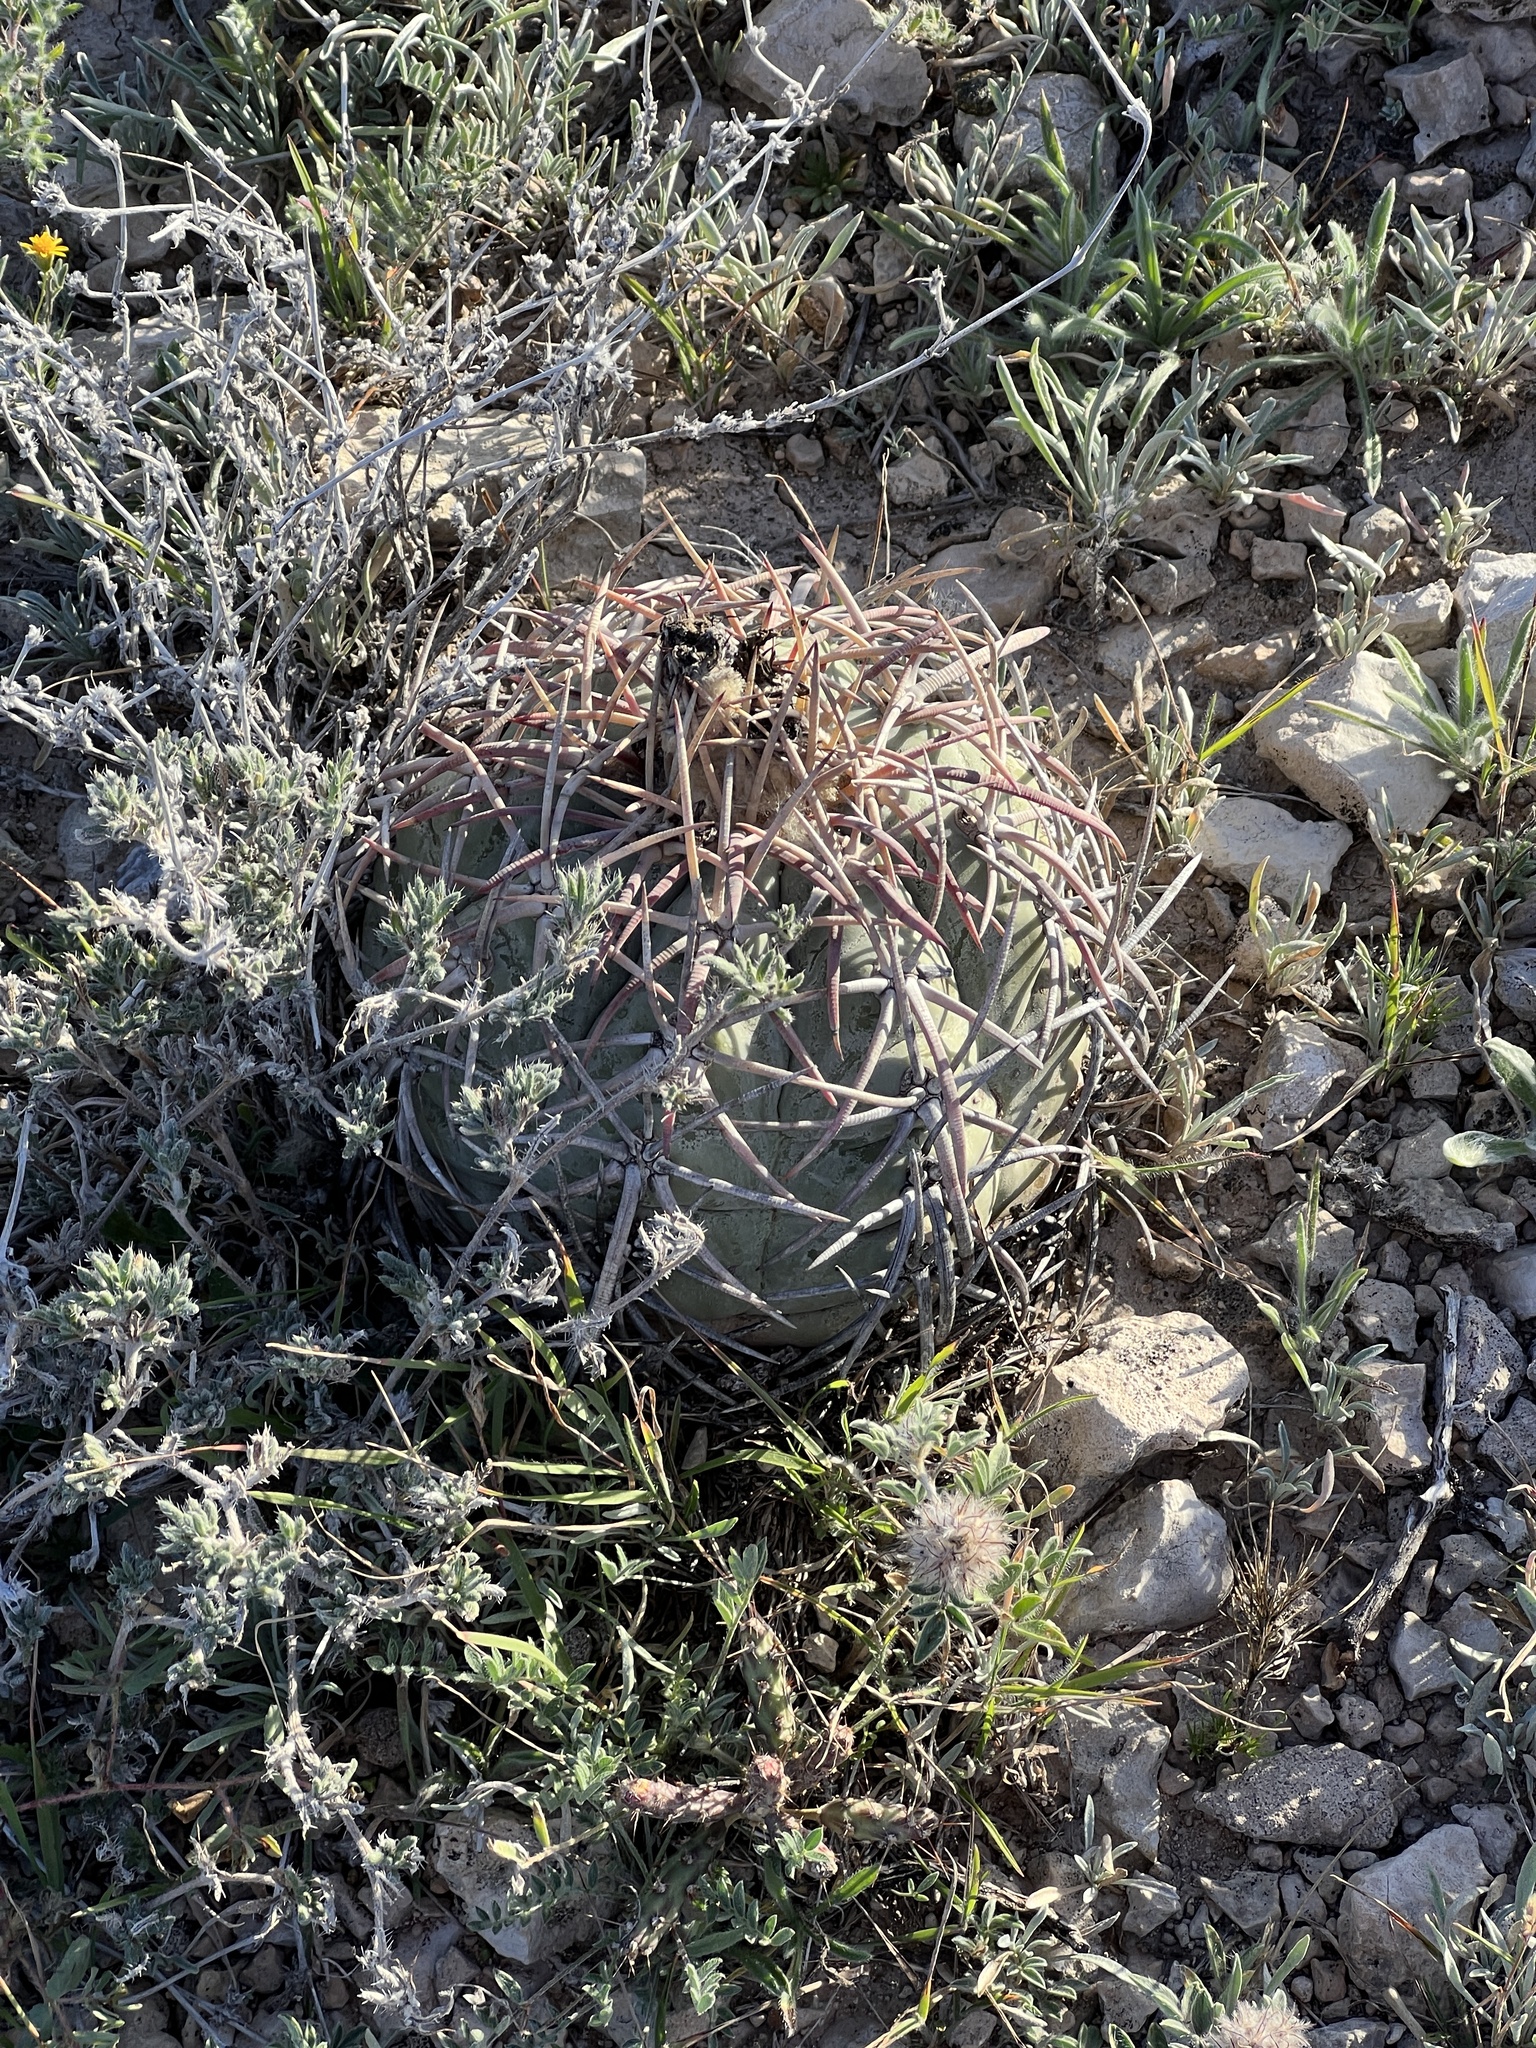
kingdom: Plantae
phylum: Tracheophyta
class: Magnoliopsida
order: Caryophyllales
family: Cactaceae
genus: Echinocactus
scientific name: Echinocactus horizonthalonius
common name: Devilshead
